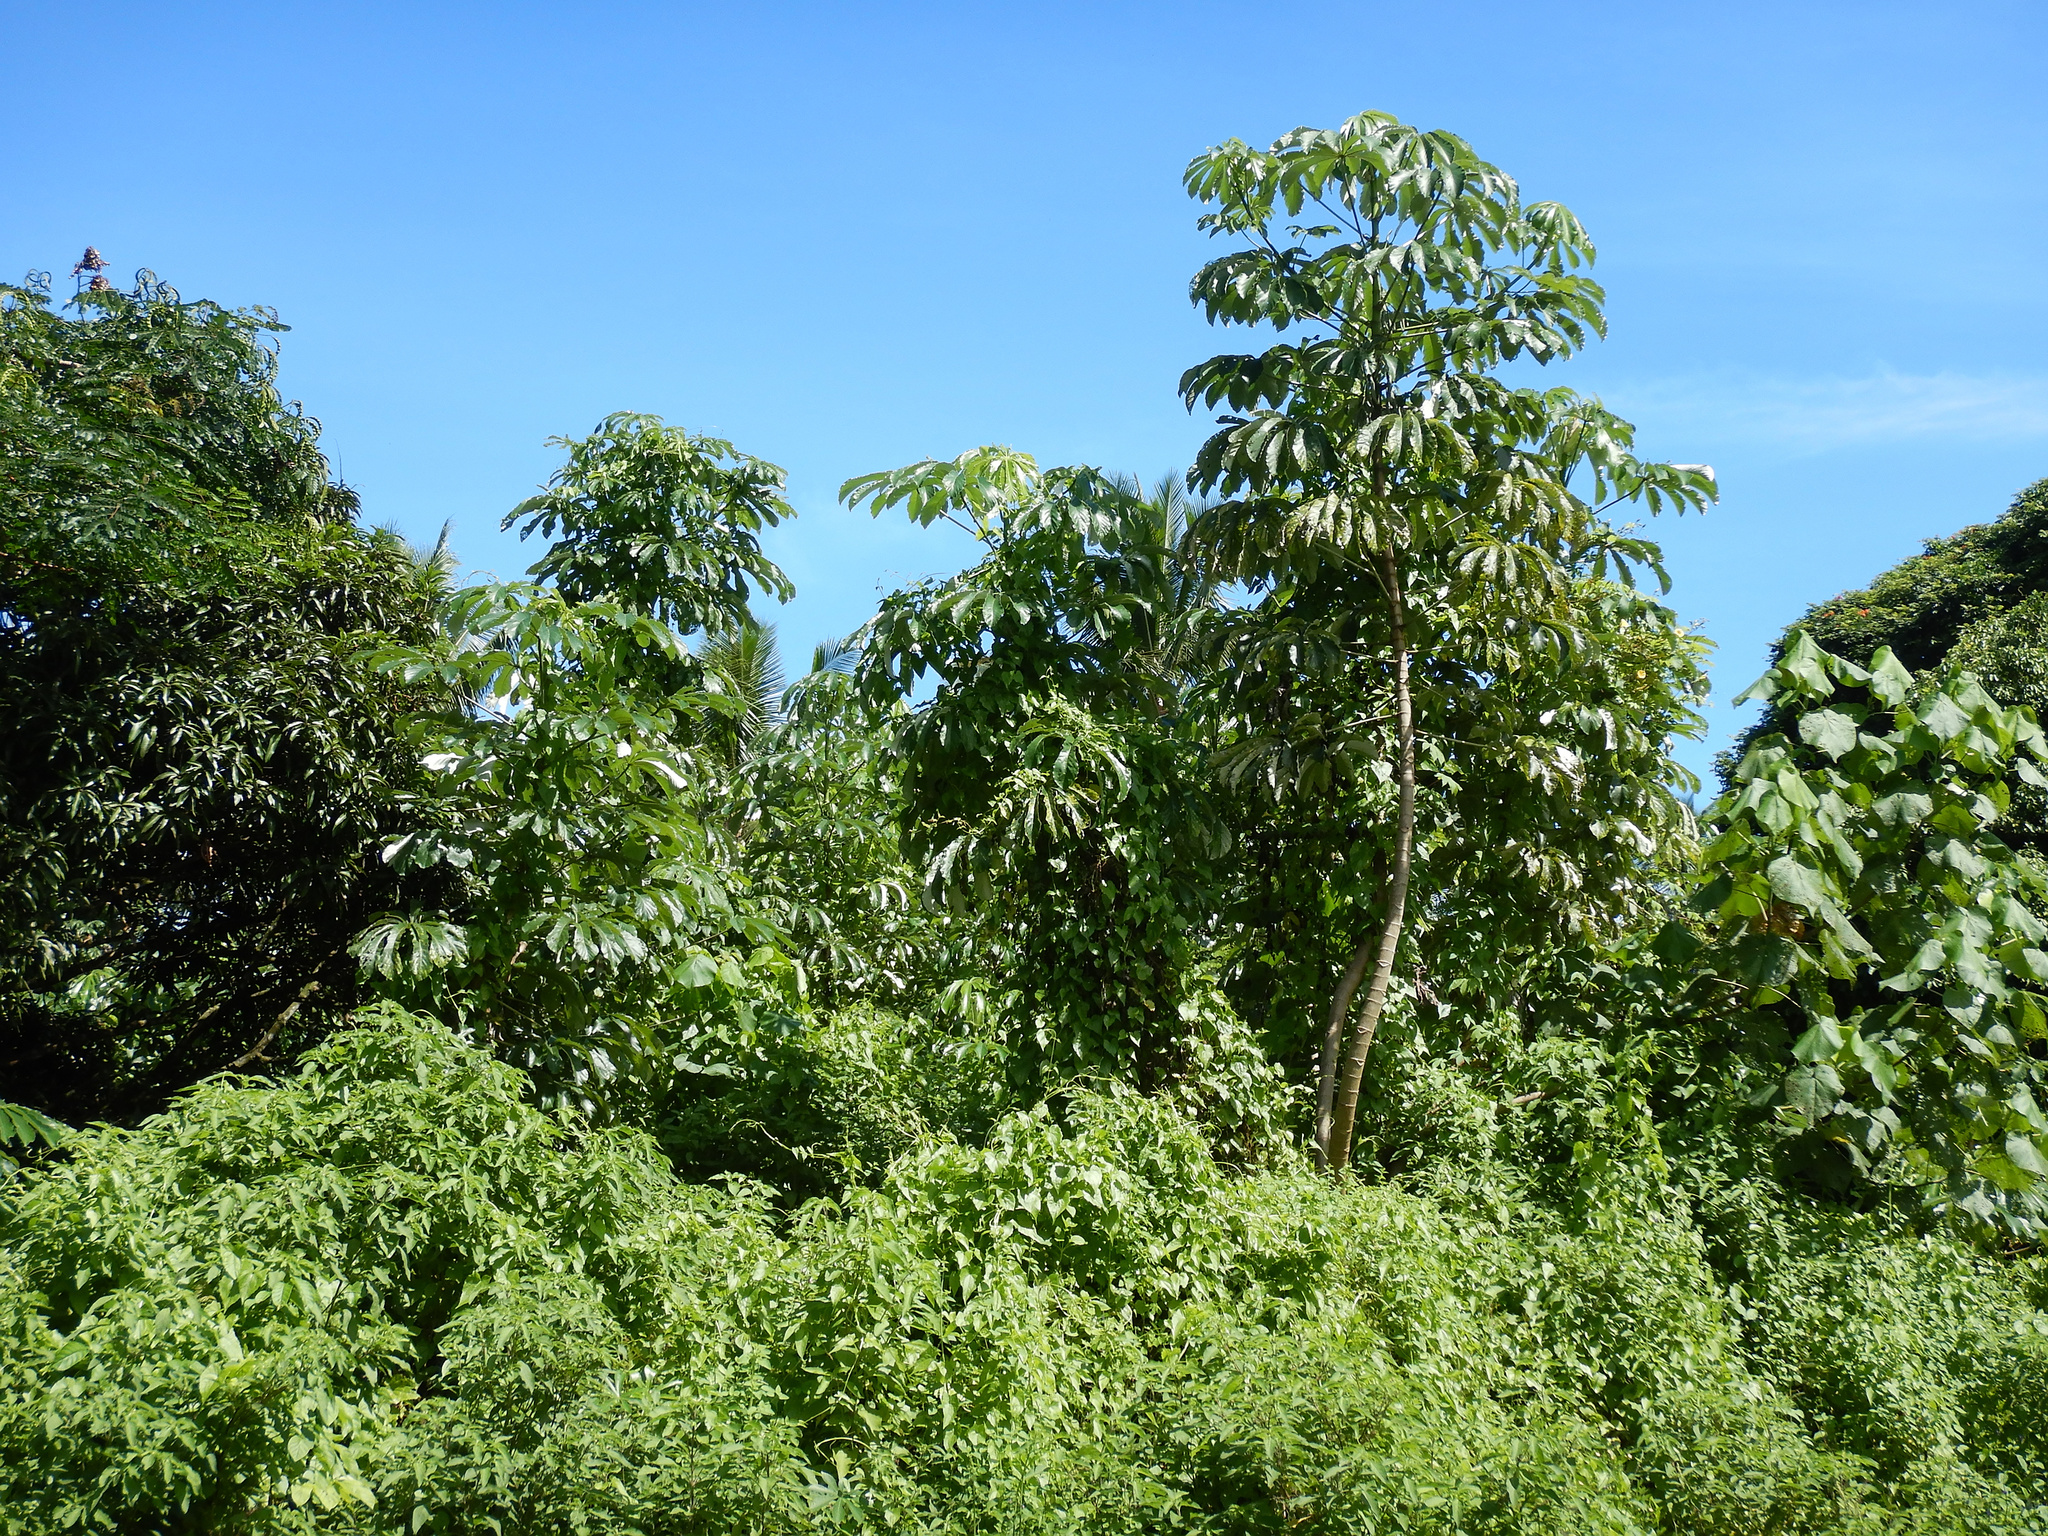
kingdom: Plantae
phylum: Tracheophyta
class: Magnoliopsida
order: Rosales
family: Urticaceae
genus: Cecropia
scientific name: Cecropia pachystachya
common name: Ambay pumpwood
